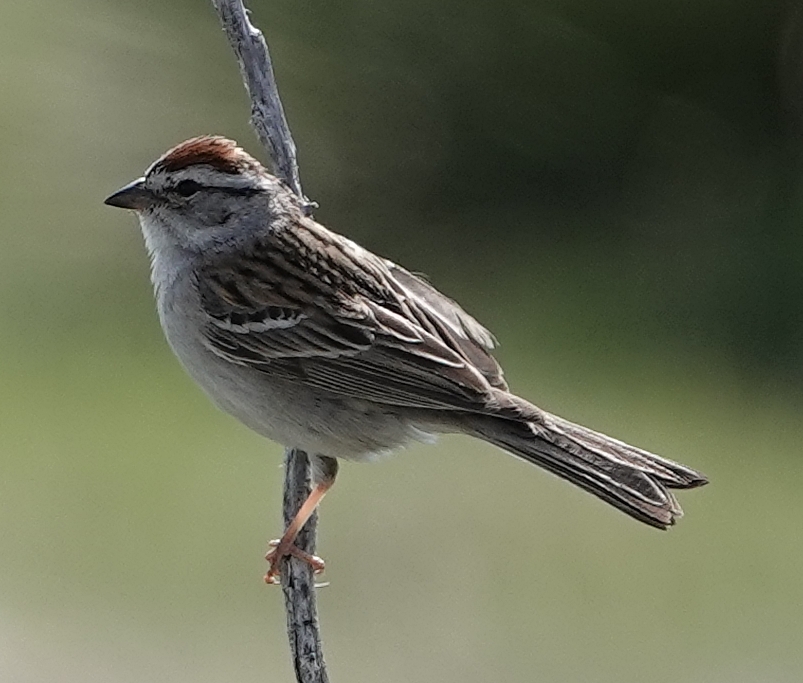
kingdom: Animalia
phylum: Chordata
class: Aves
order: Passeriformes
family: Passerellidae
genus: Spizella
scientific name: Spizella passerina
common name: Chipping sparrow
